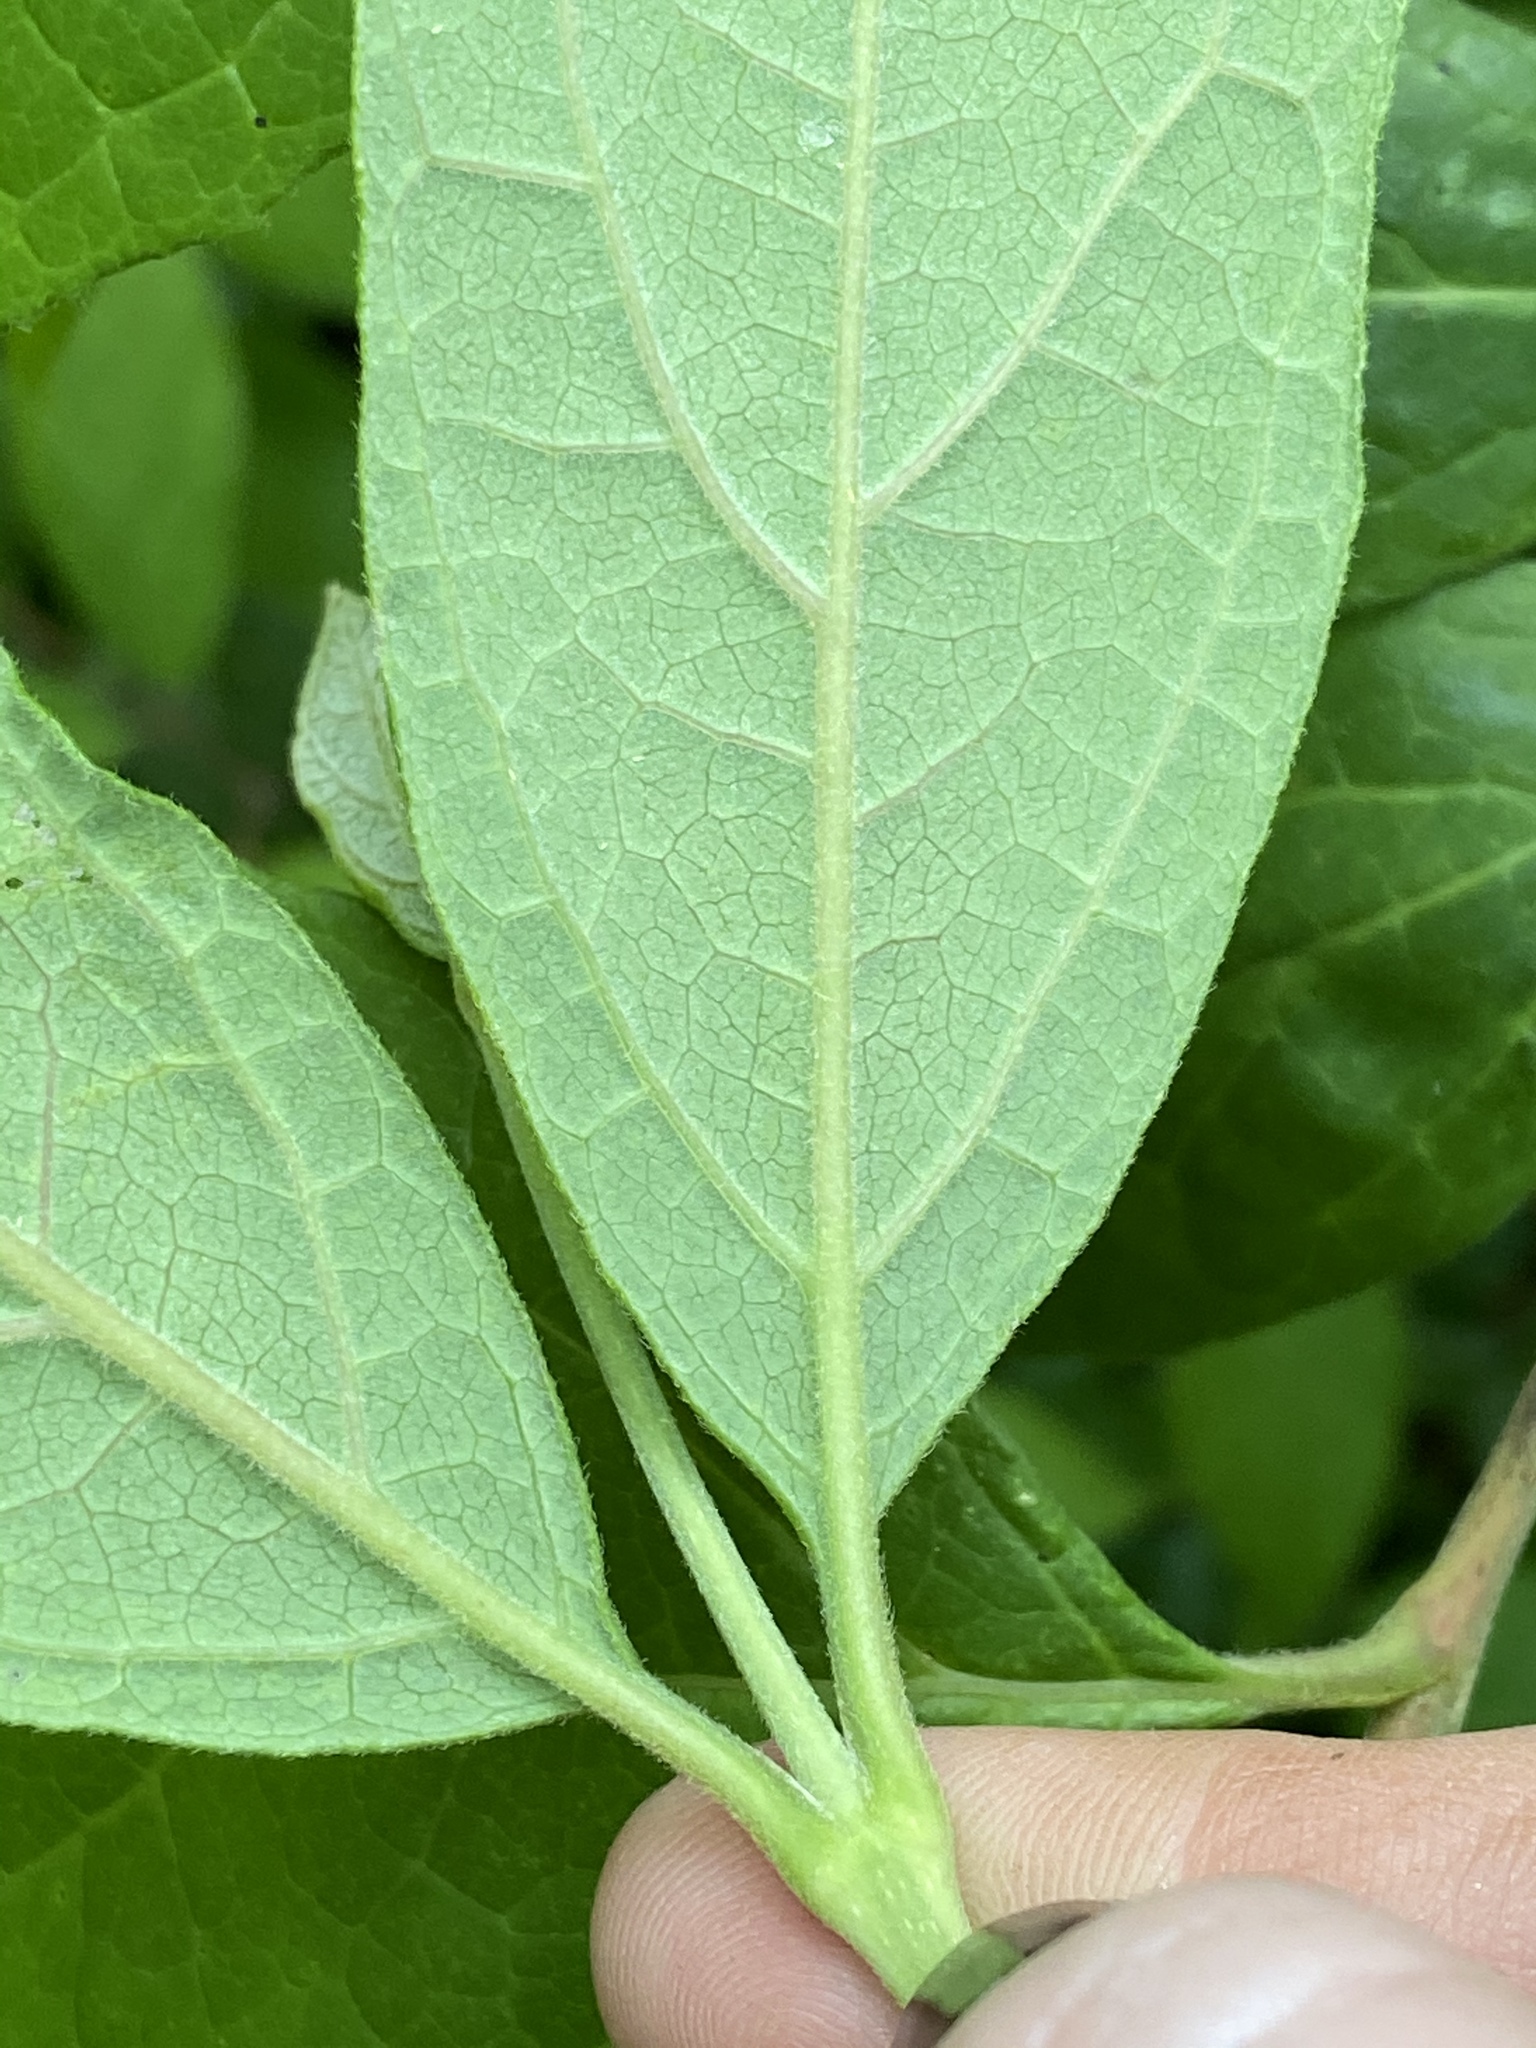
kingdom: Plantae
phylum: Tracheophyta
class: Magnoliopsida
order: Laurales
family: Calycanthaceae
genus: Calycanthus
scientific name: Calycanthus floridus
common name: Carolina-allspice
